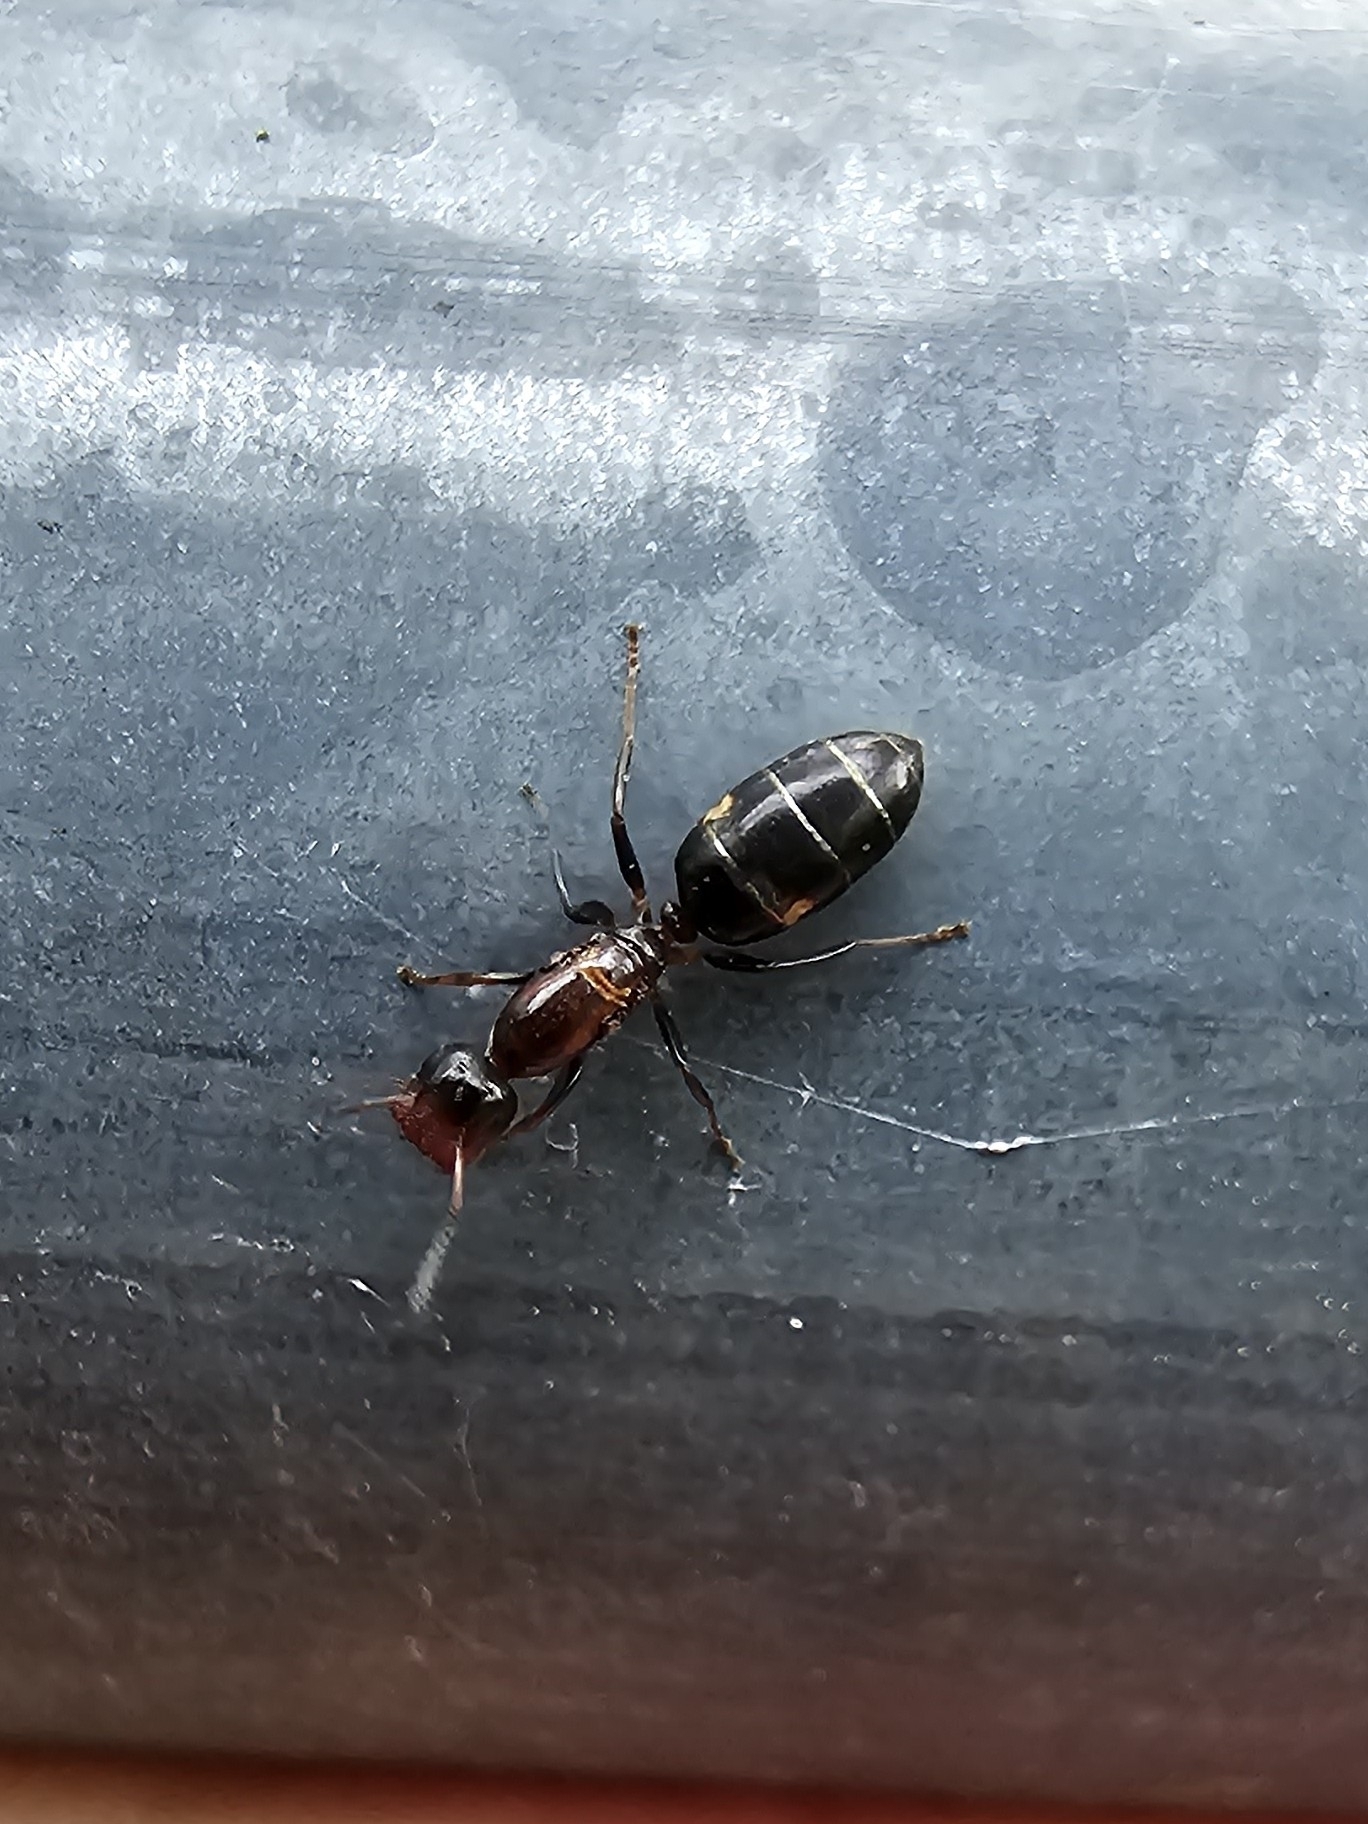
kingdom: Animalia
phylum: Arthropoda
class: Insecta
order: Hymenoptera
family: Formicidae
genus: Camponotus
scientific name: Camponotus truncatus
